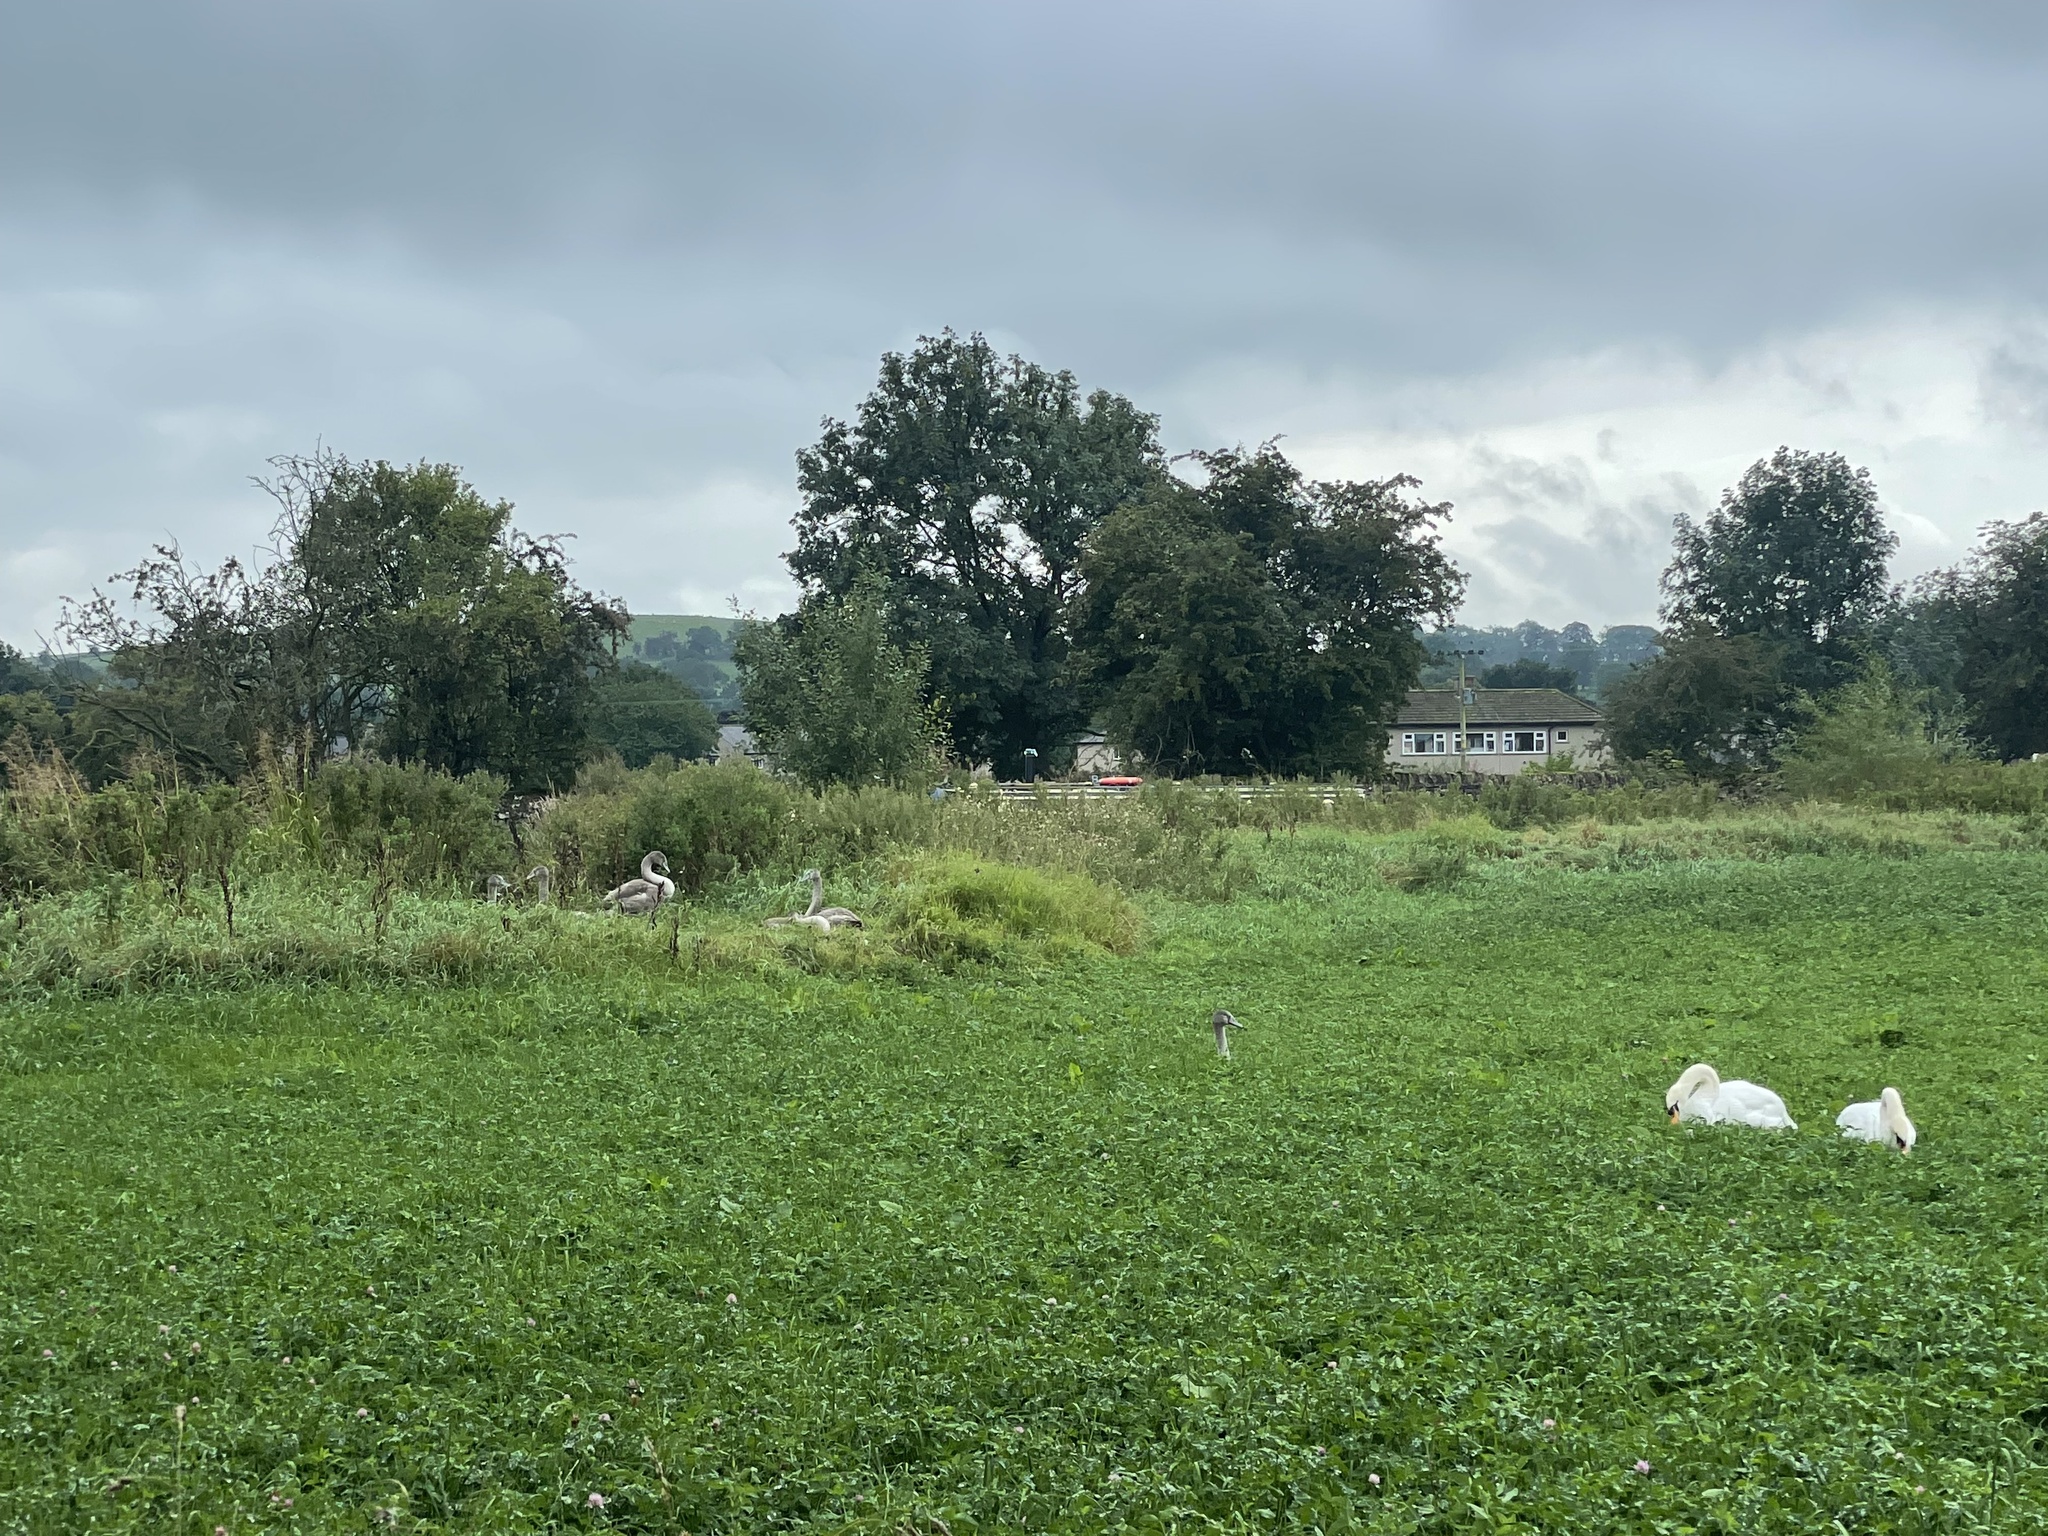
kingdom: Animalia
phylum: Chordata
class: Aves
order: Anseriformes
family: Anatidae
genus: Cygnus
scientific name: Cygnus olor
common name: Mute swan
